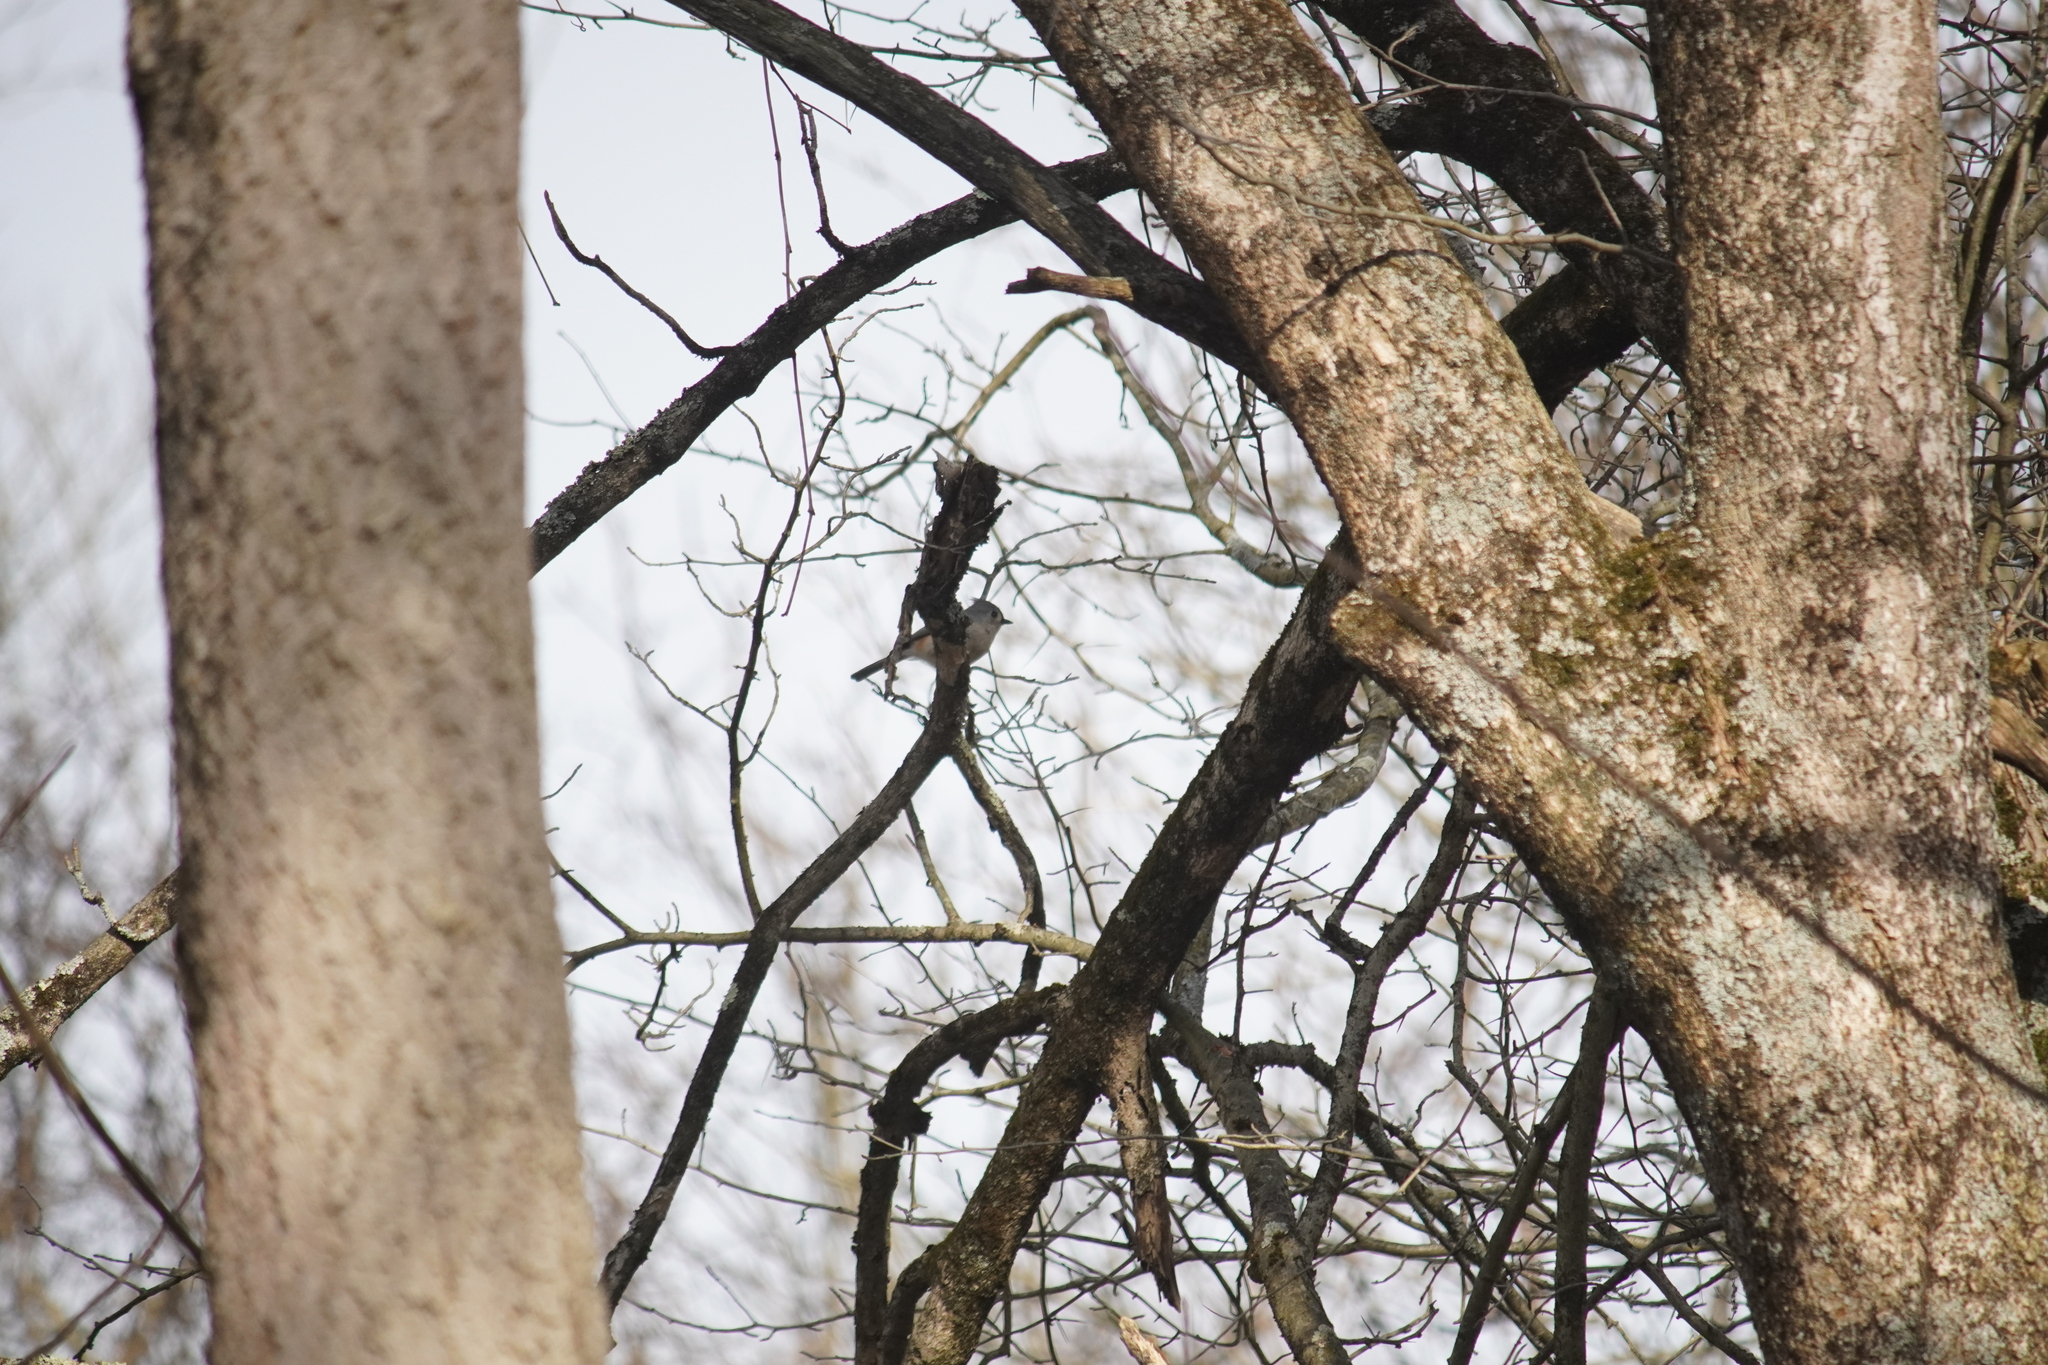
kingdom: Animalia
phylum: Chordata
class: Aves
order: Passeriformes
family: Paridae
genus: Baeolophus
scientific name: Baeolophus bicolor
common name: Tufted titmouse
